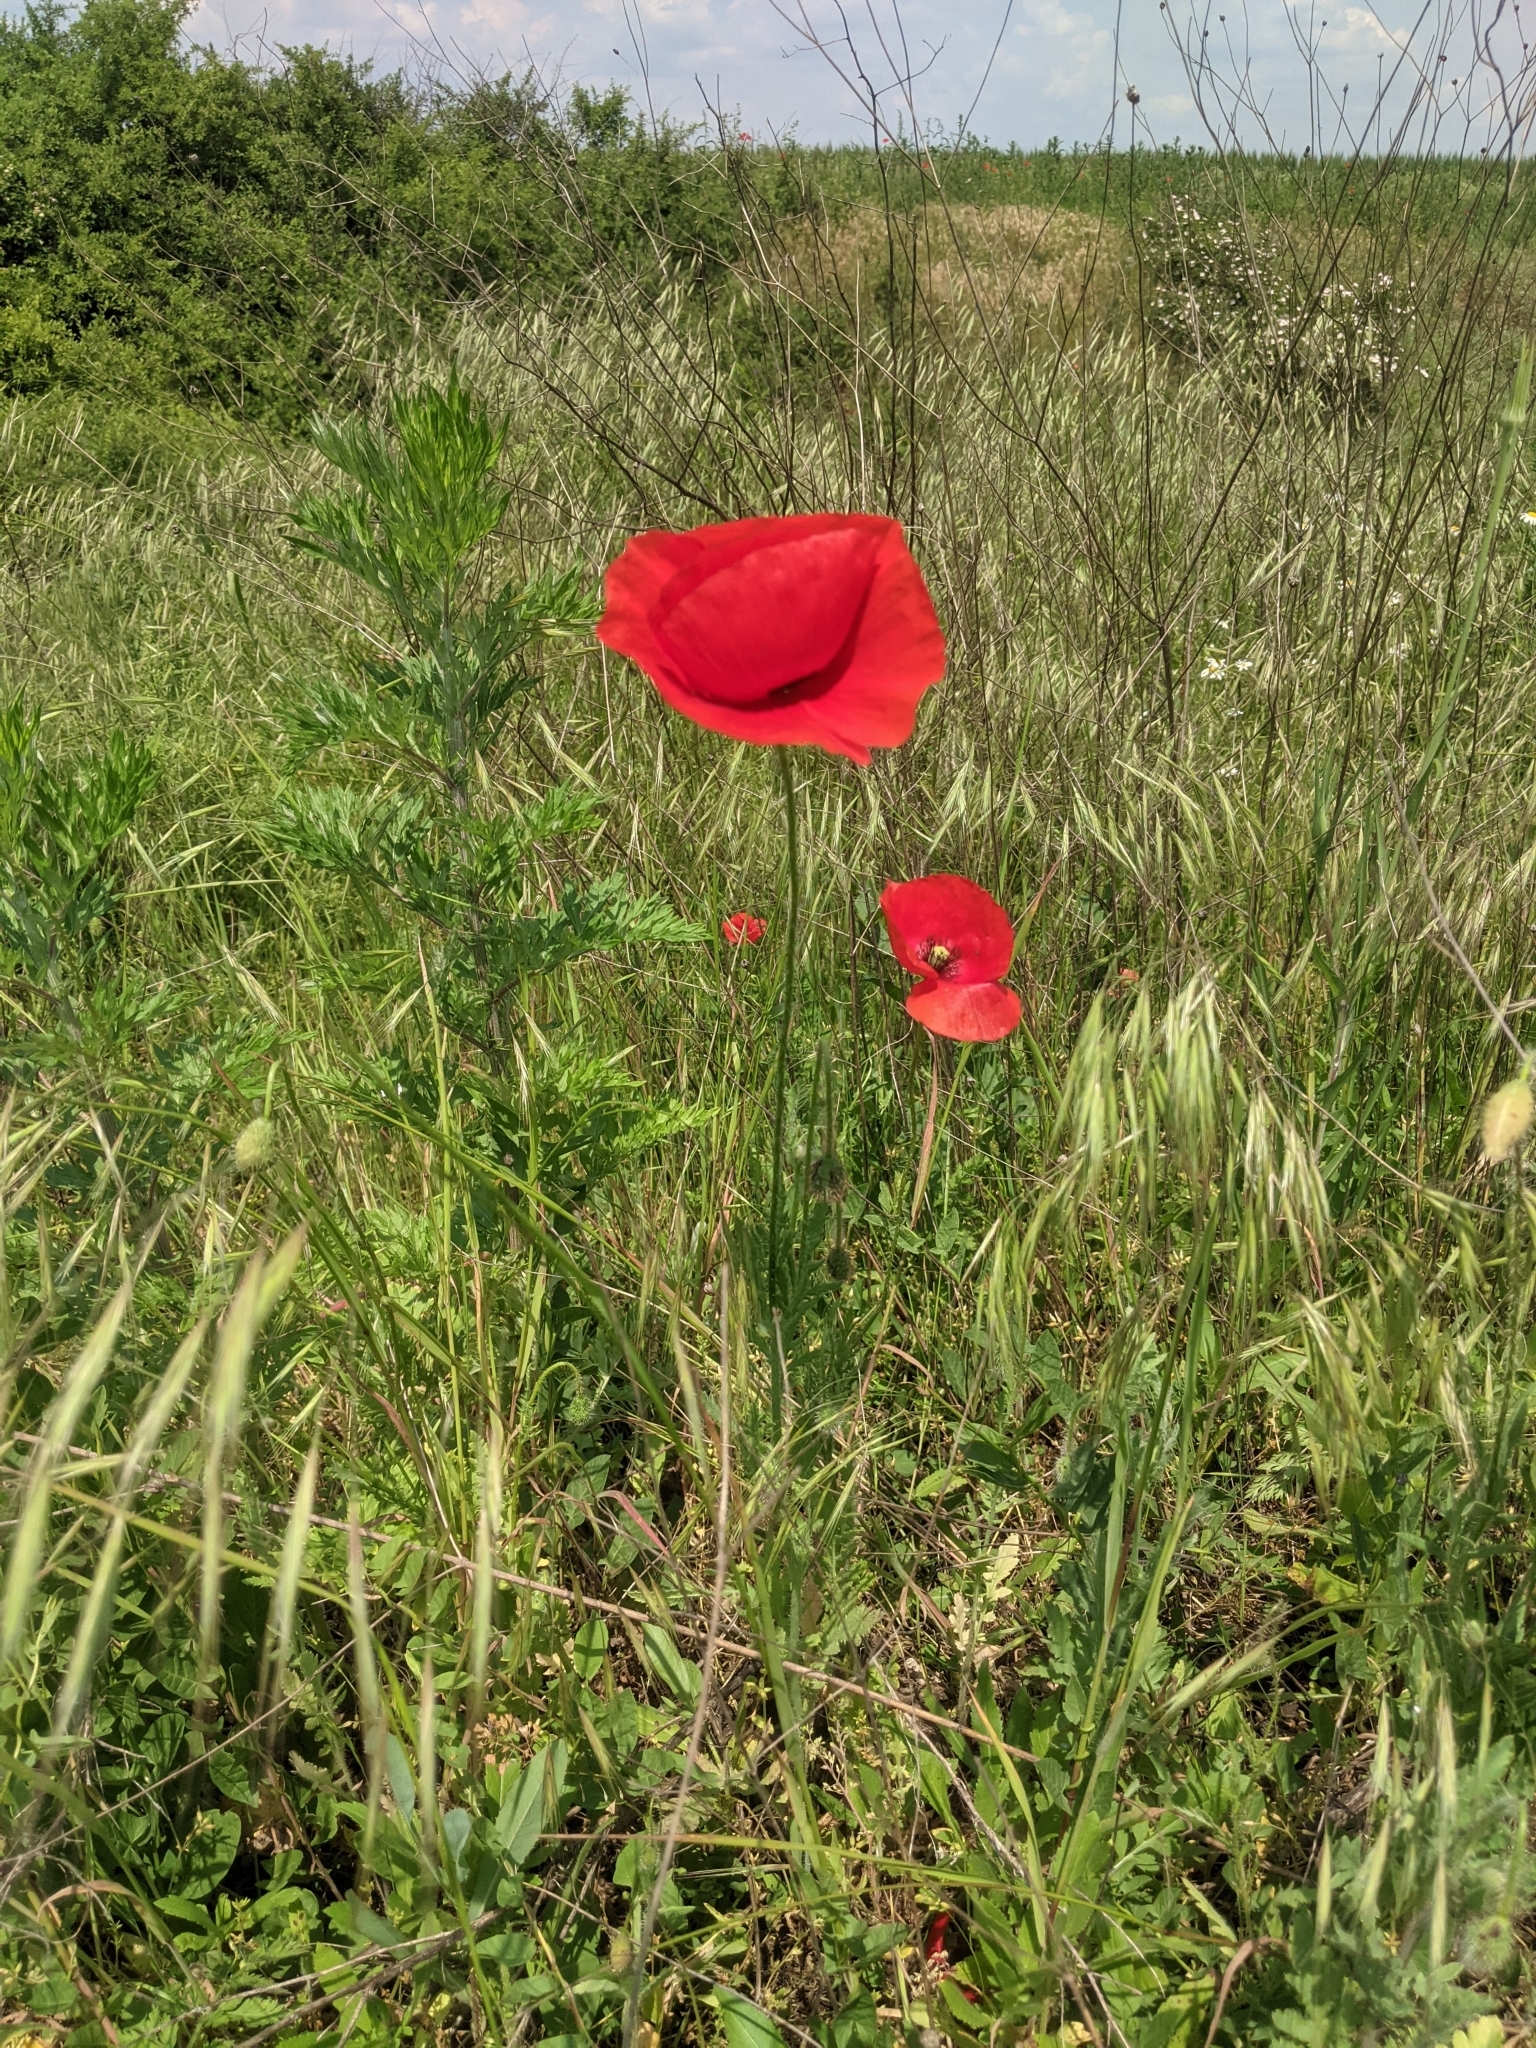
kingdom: Plantae
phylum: Tracheophyta
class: Magnoliopsida
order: Ranunculales
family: Papaveraceae
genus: Papaver
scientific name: Papaver rhoeas
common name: Corn poppy
